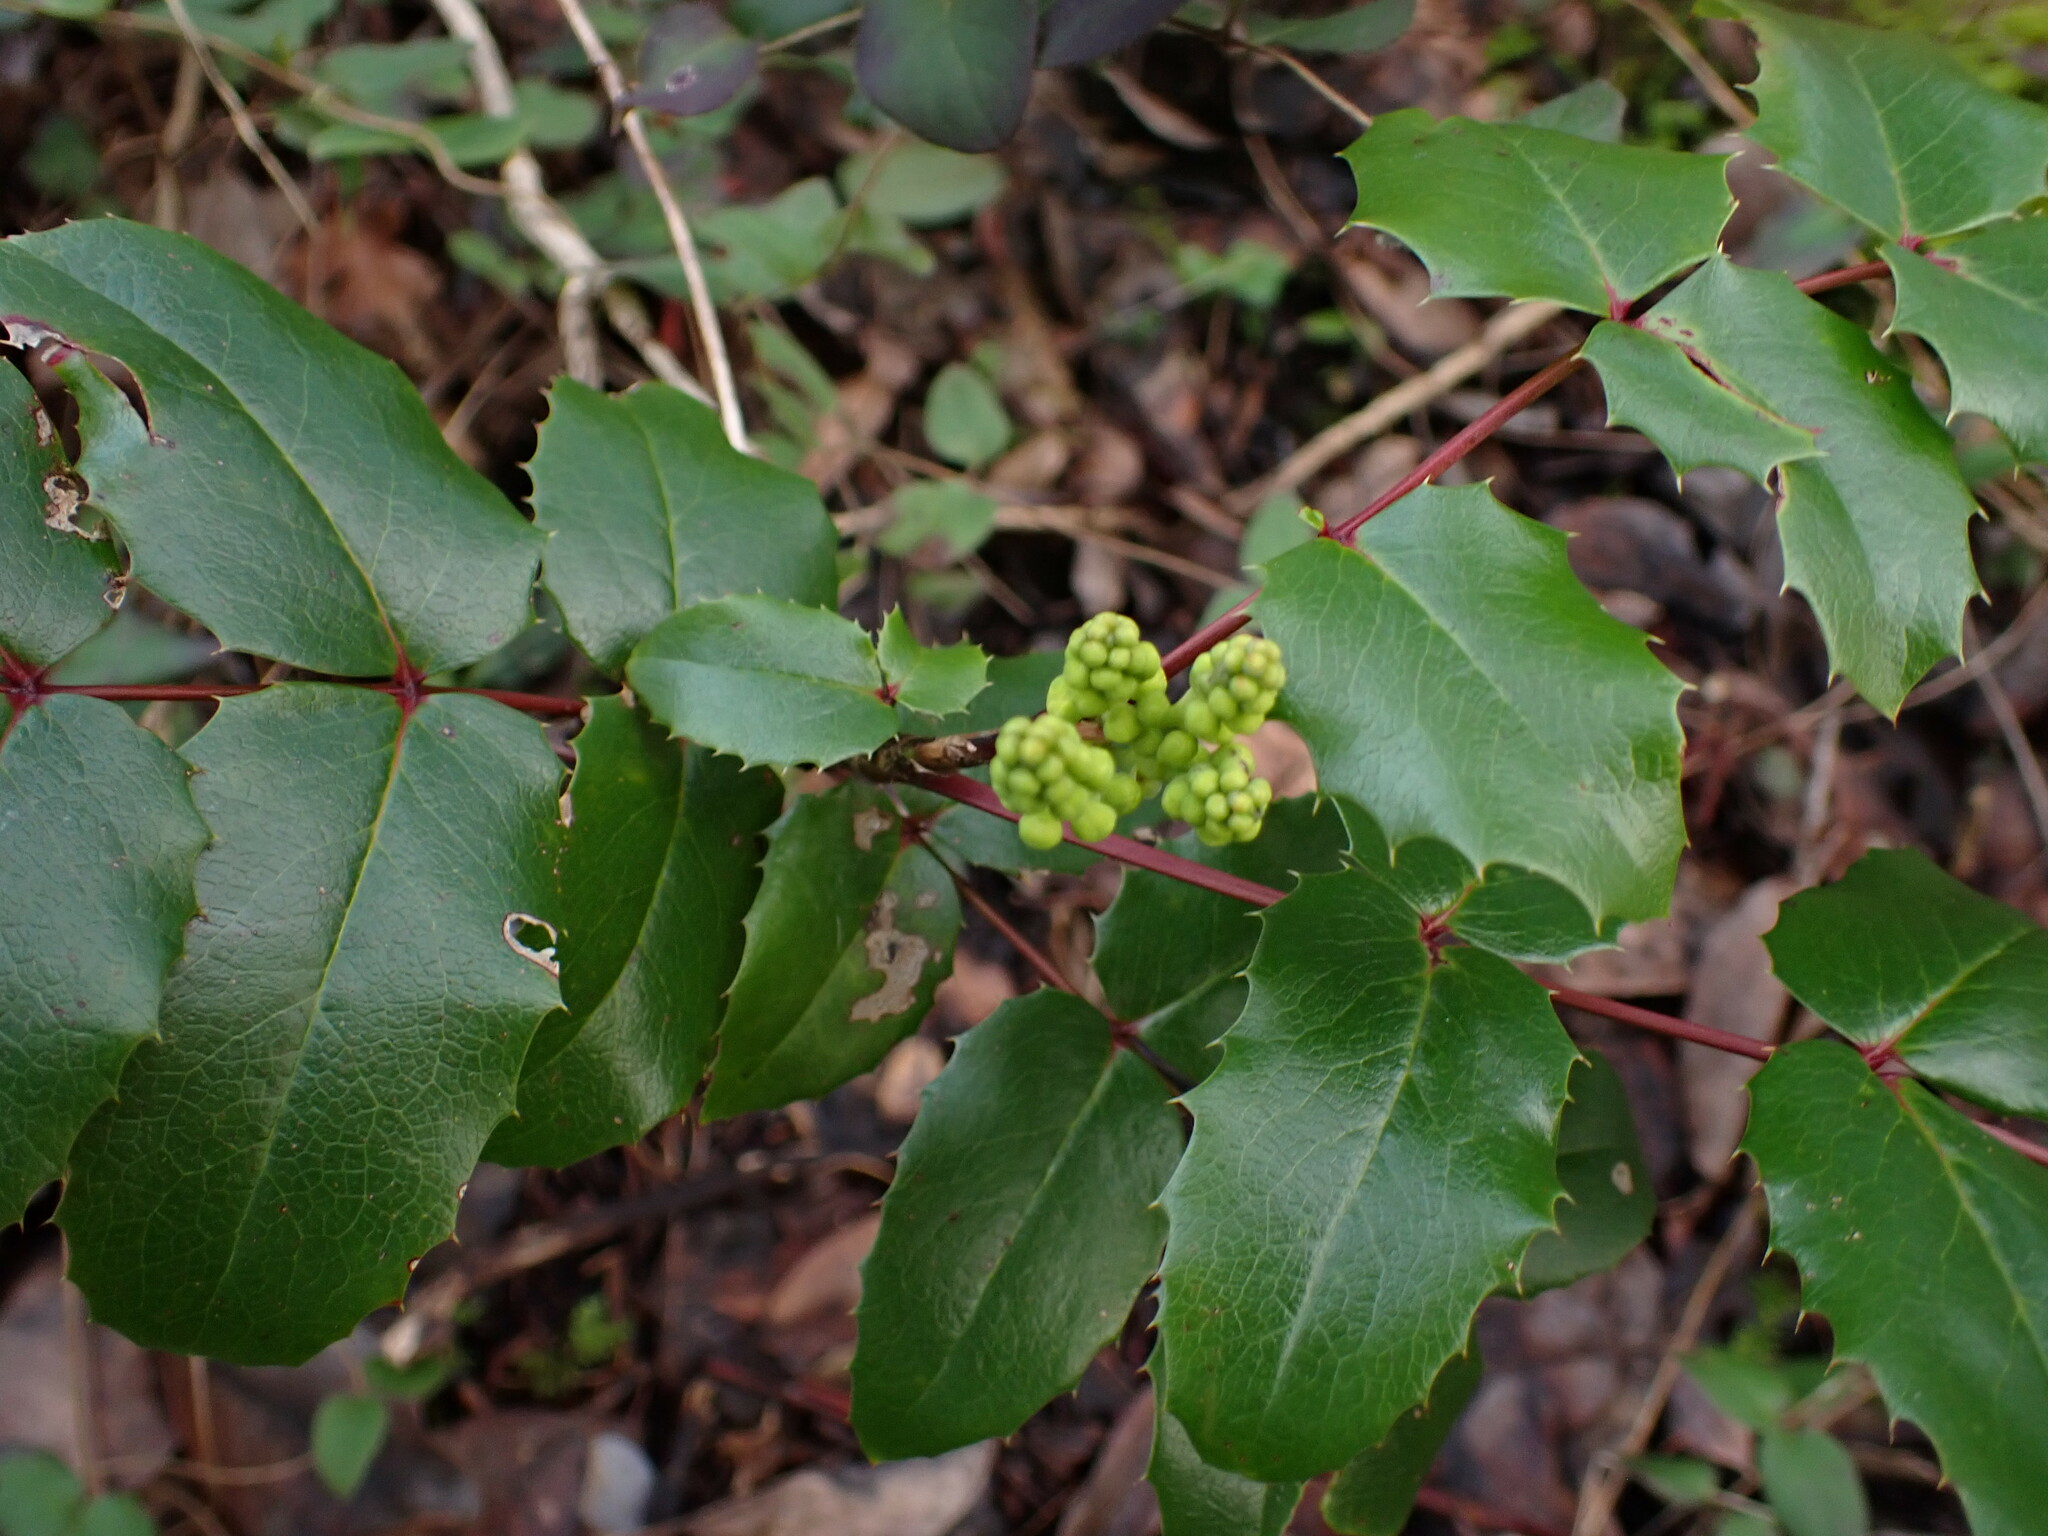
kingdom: Plantae
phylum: Tracheophyta
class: Magnoliopsida
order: Ranunculales
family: Berberidaceae
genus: Mahonia
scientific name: Mahonia aquifolium
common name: Oregon-grape
